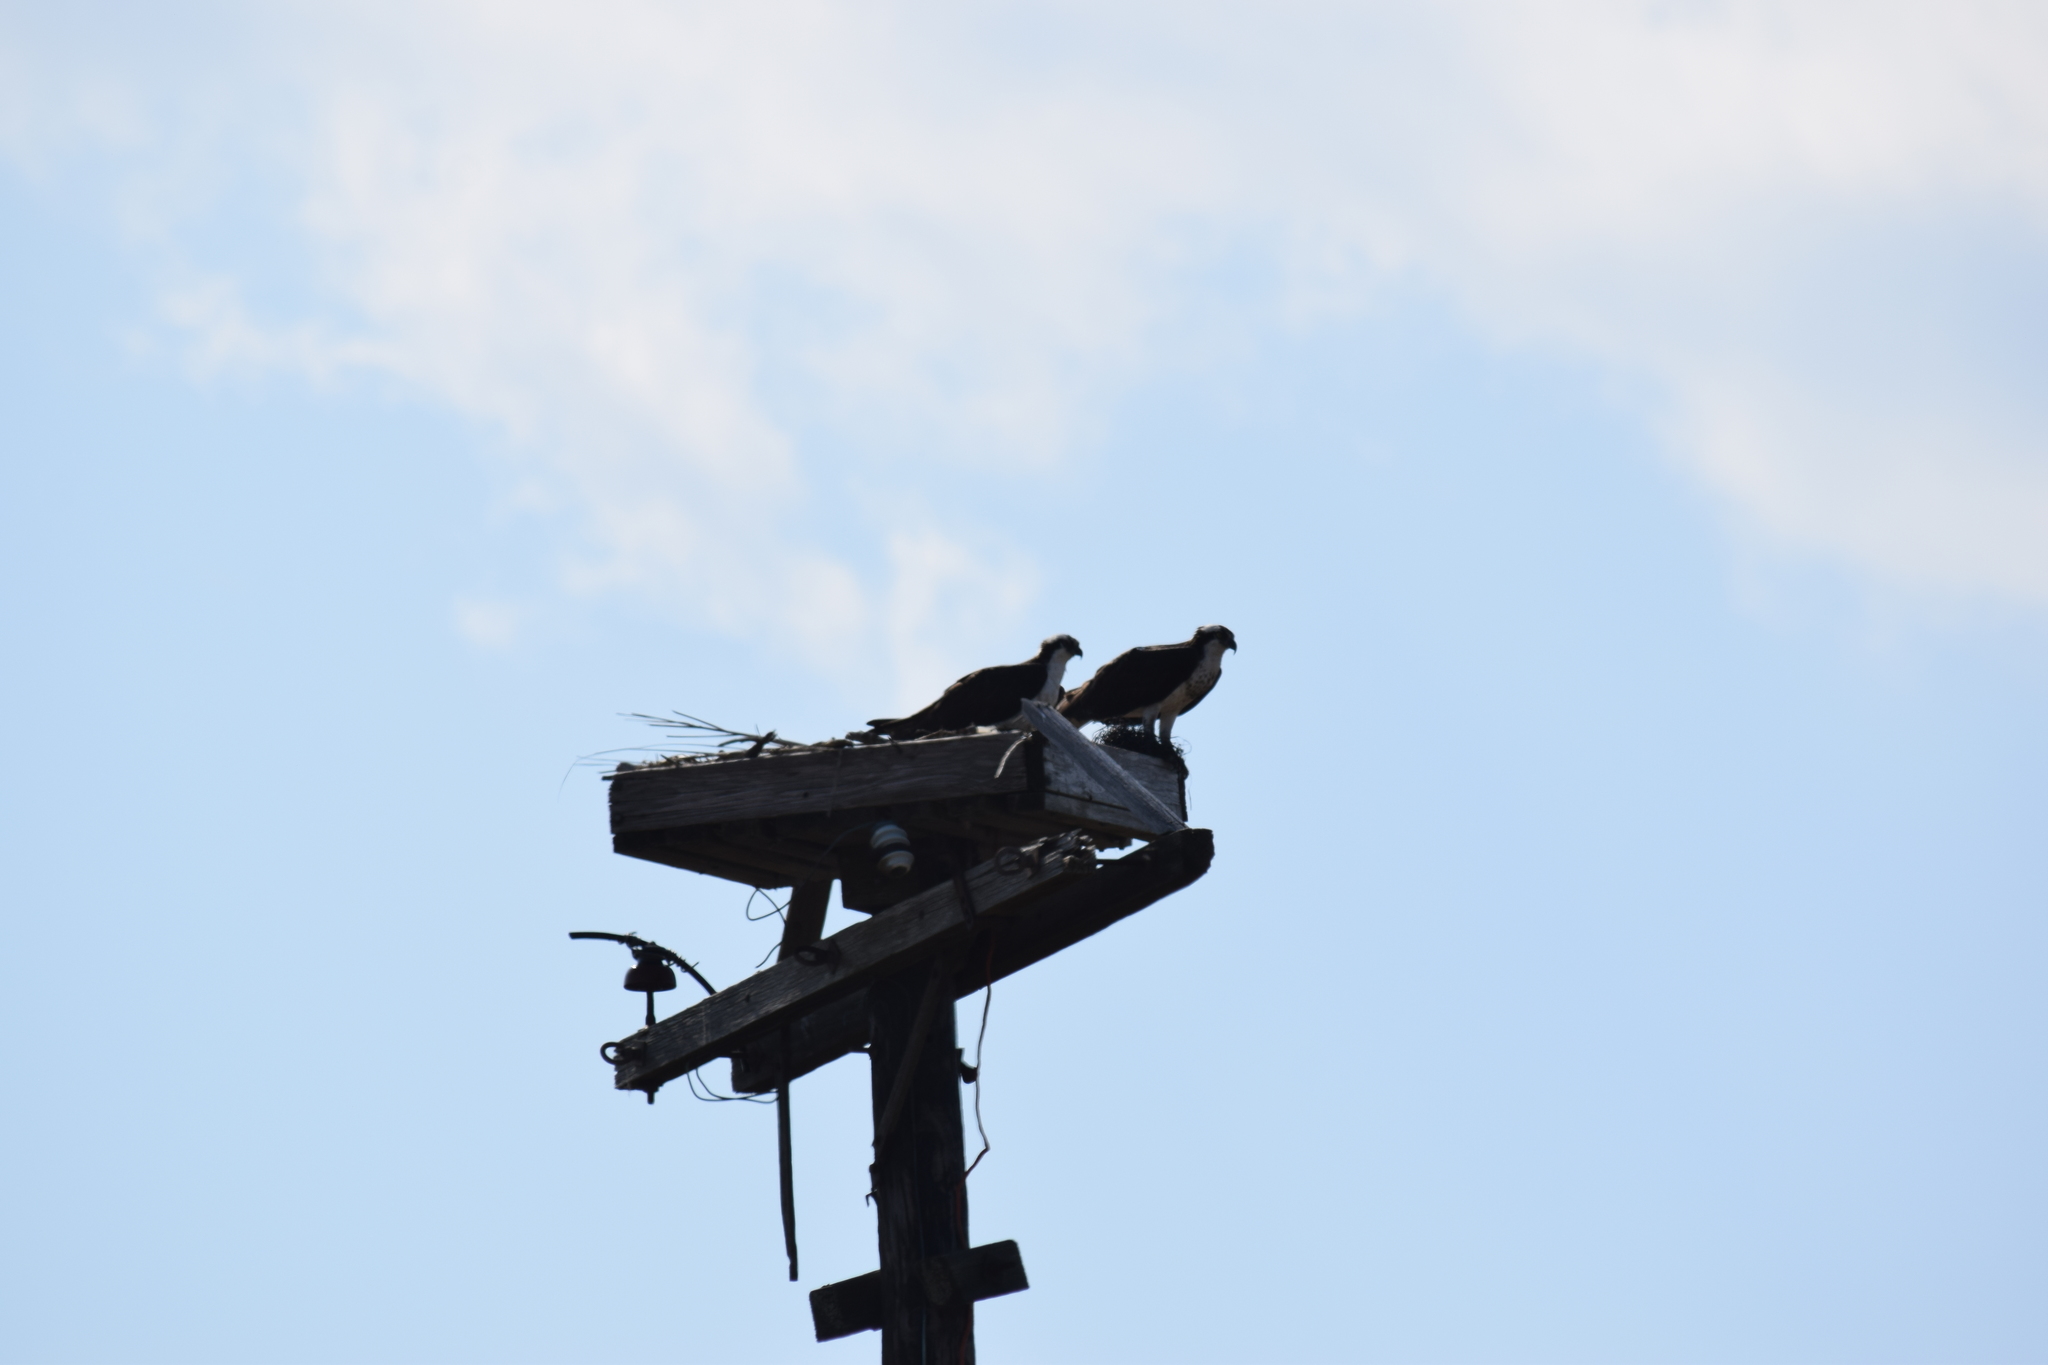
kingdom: Animalia
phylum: Chordata
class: Aves
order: Accipitriformes
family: Pandionidae
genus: Pandion
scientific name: Pandion haliaetus
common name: Osprey
